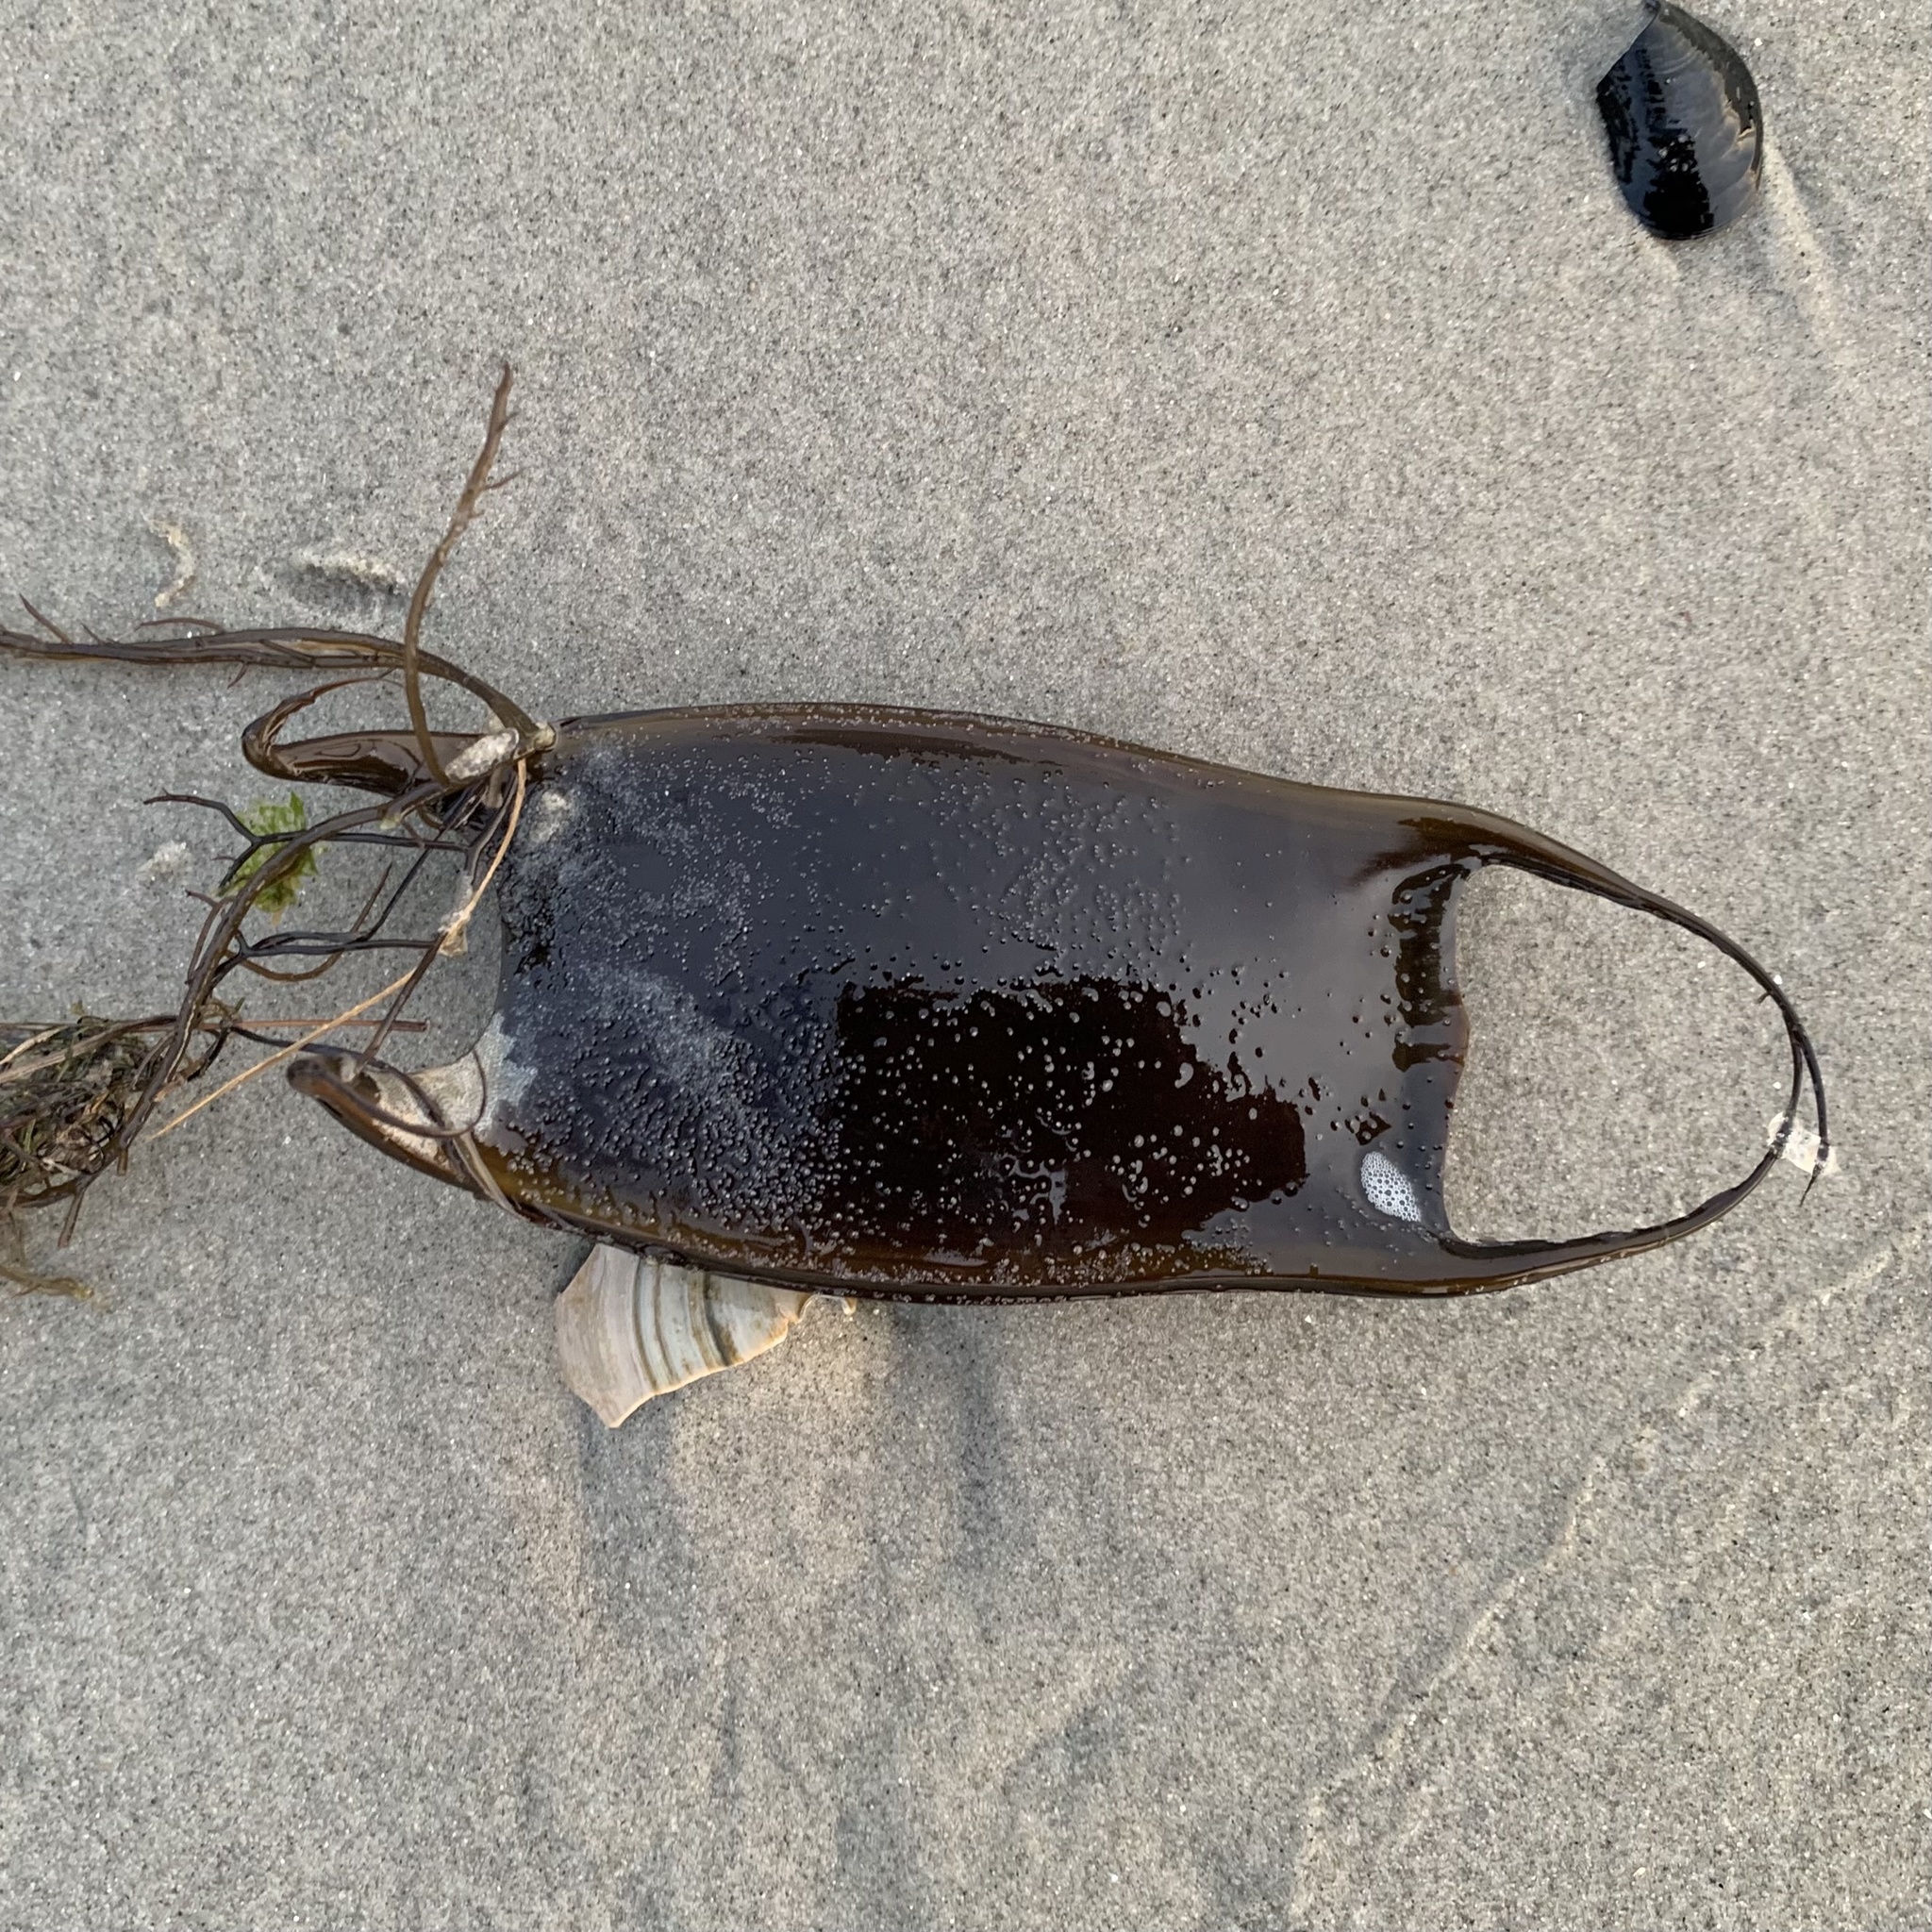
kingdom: Animalia
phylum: Chordata
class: Elasmobranchii
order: Rajiformes
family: Rajidae
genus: Raja
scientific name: Raja eglanteria
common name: Clearnose skate
